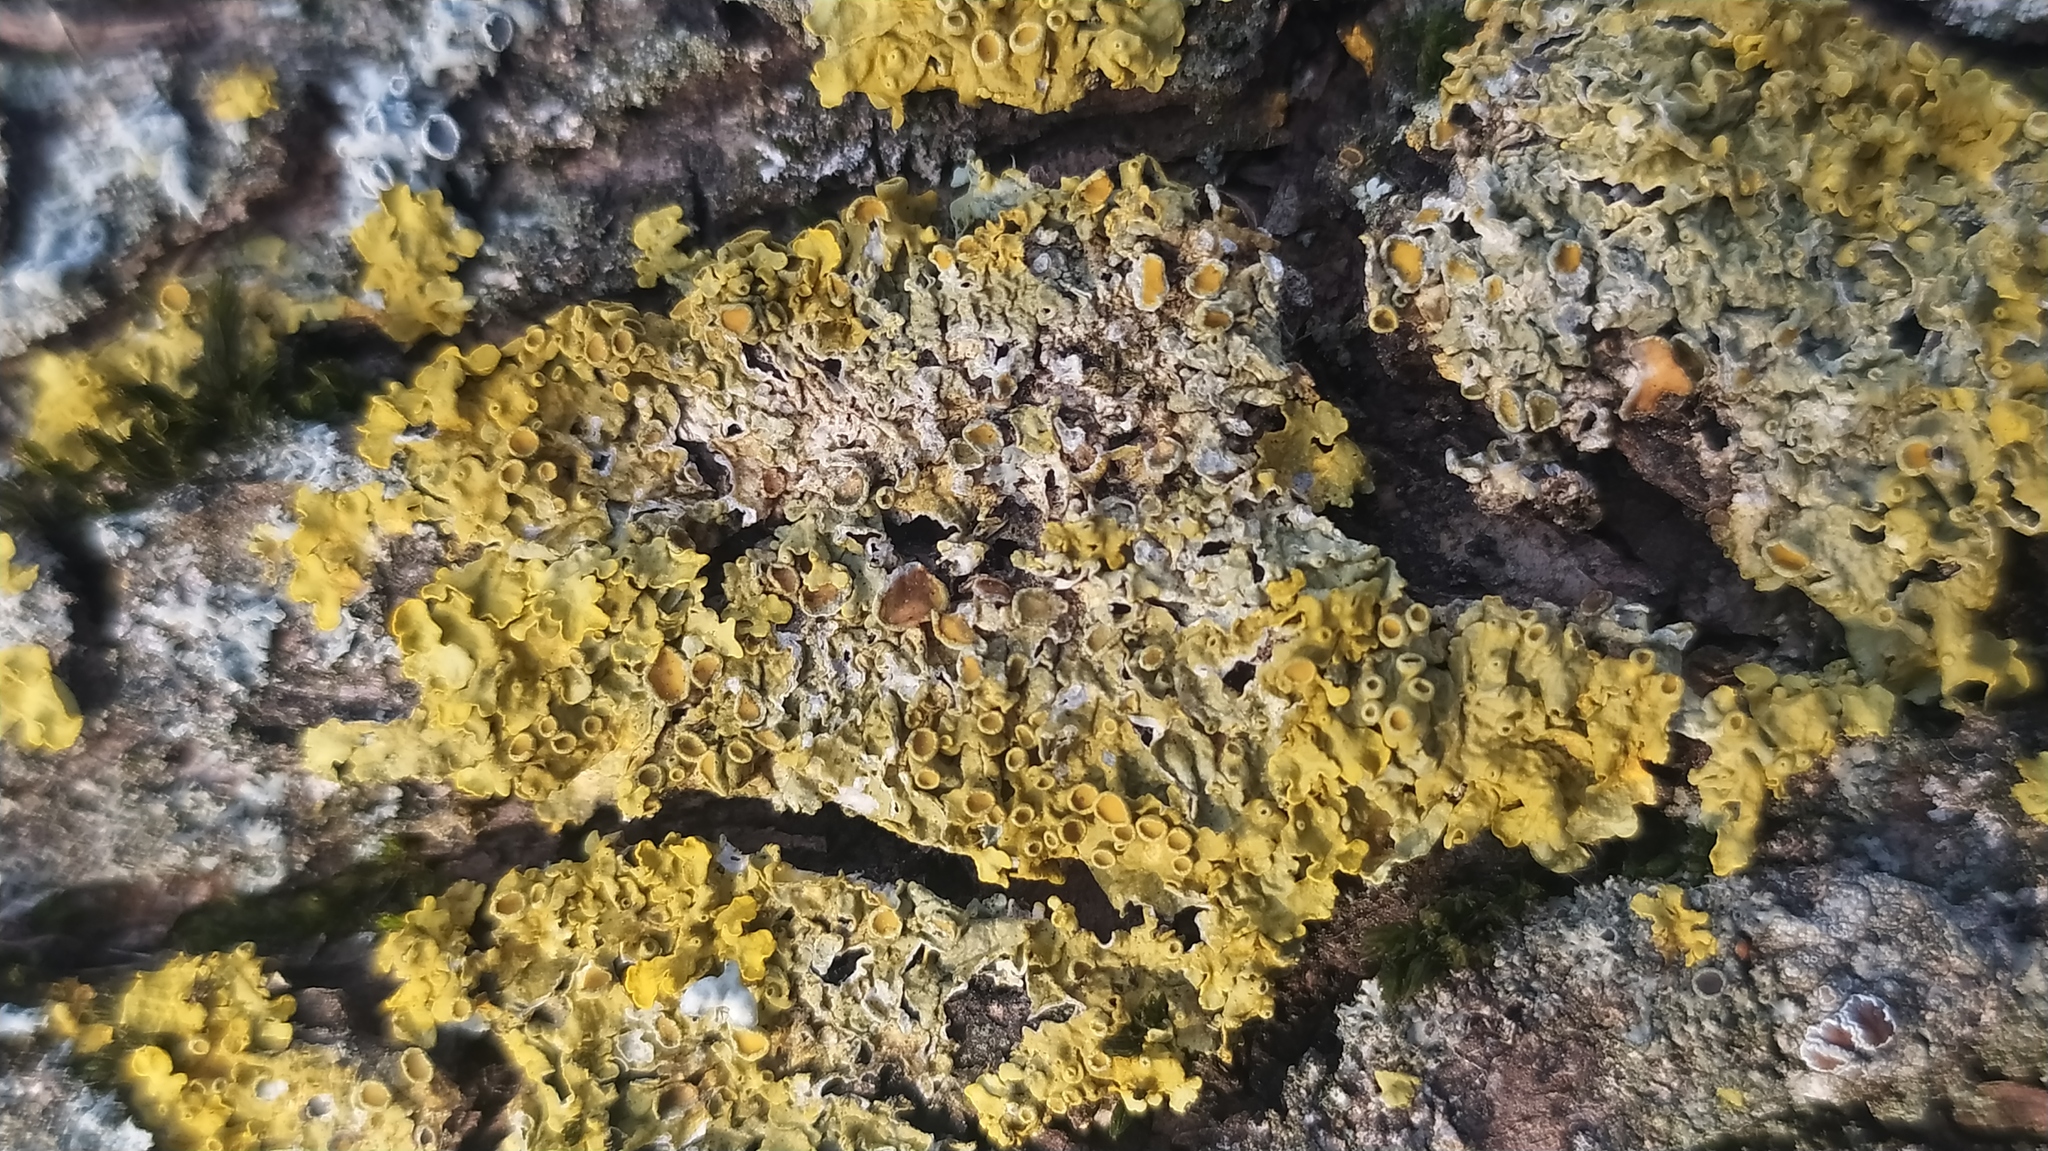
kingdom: Fungi
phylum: Ascomycota
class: Lecanoromycetes
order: Teloschistales
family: Teloschistaceae
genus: Xanthoria
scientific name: Xanthoria parietina
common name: Common orange lichen
